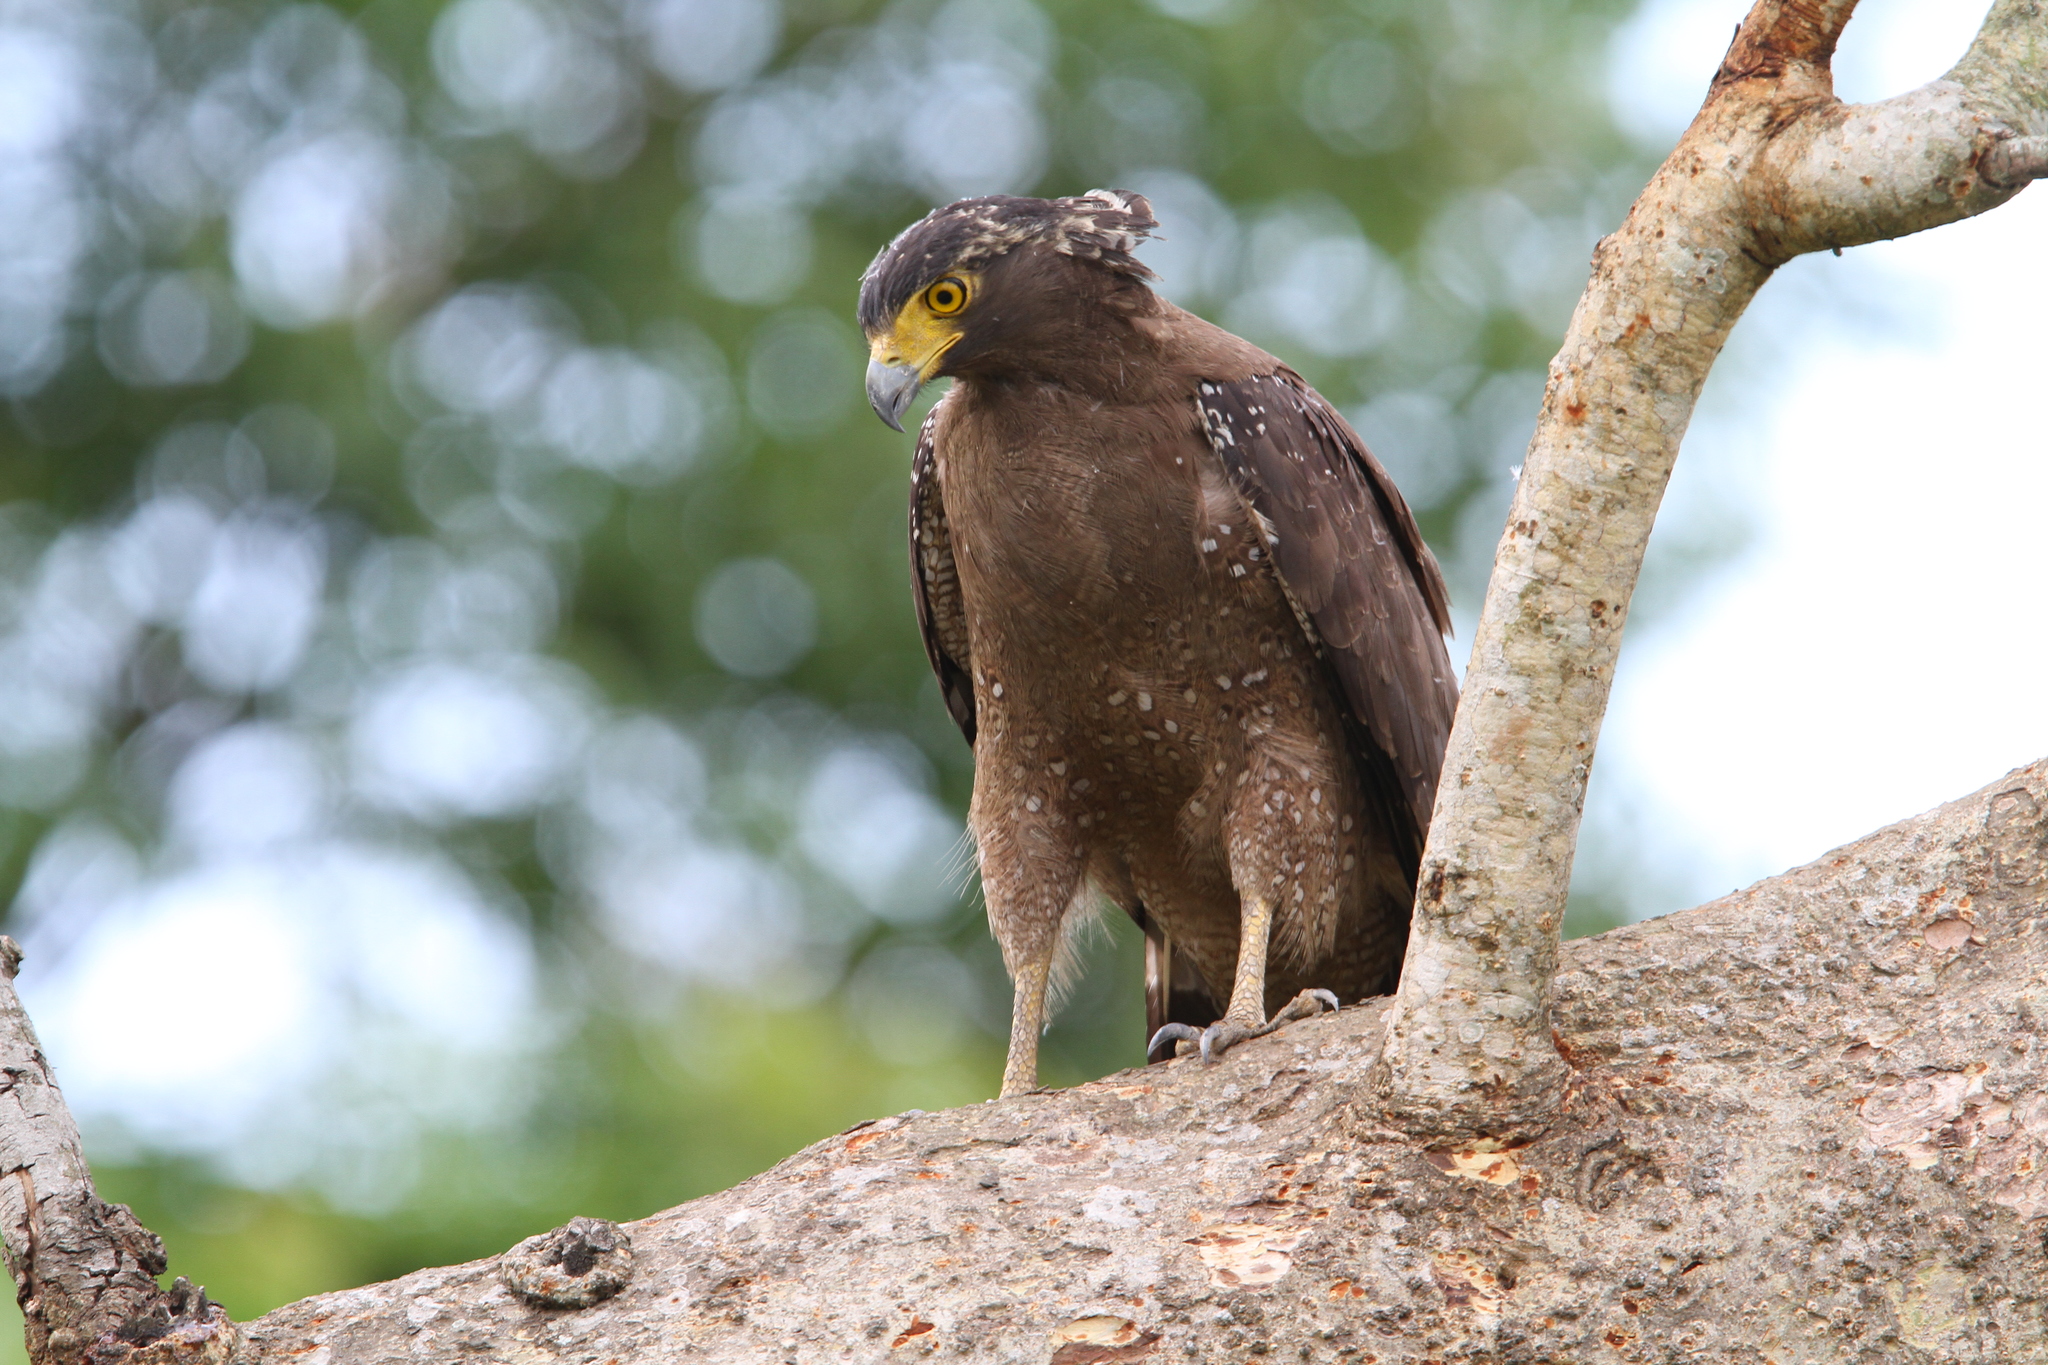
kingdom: Animalia
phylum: Chordata
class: Aves
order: Accipitriformes
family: Accipitridae
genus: Spilornis
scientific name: Spilornis cheela
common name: Crested serpent eagle
